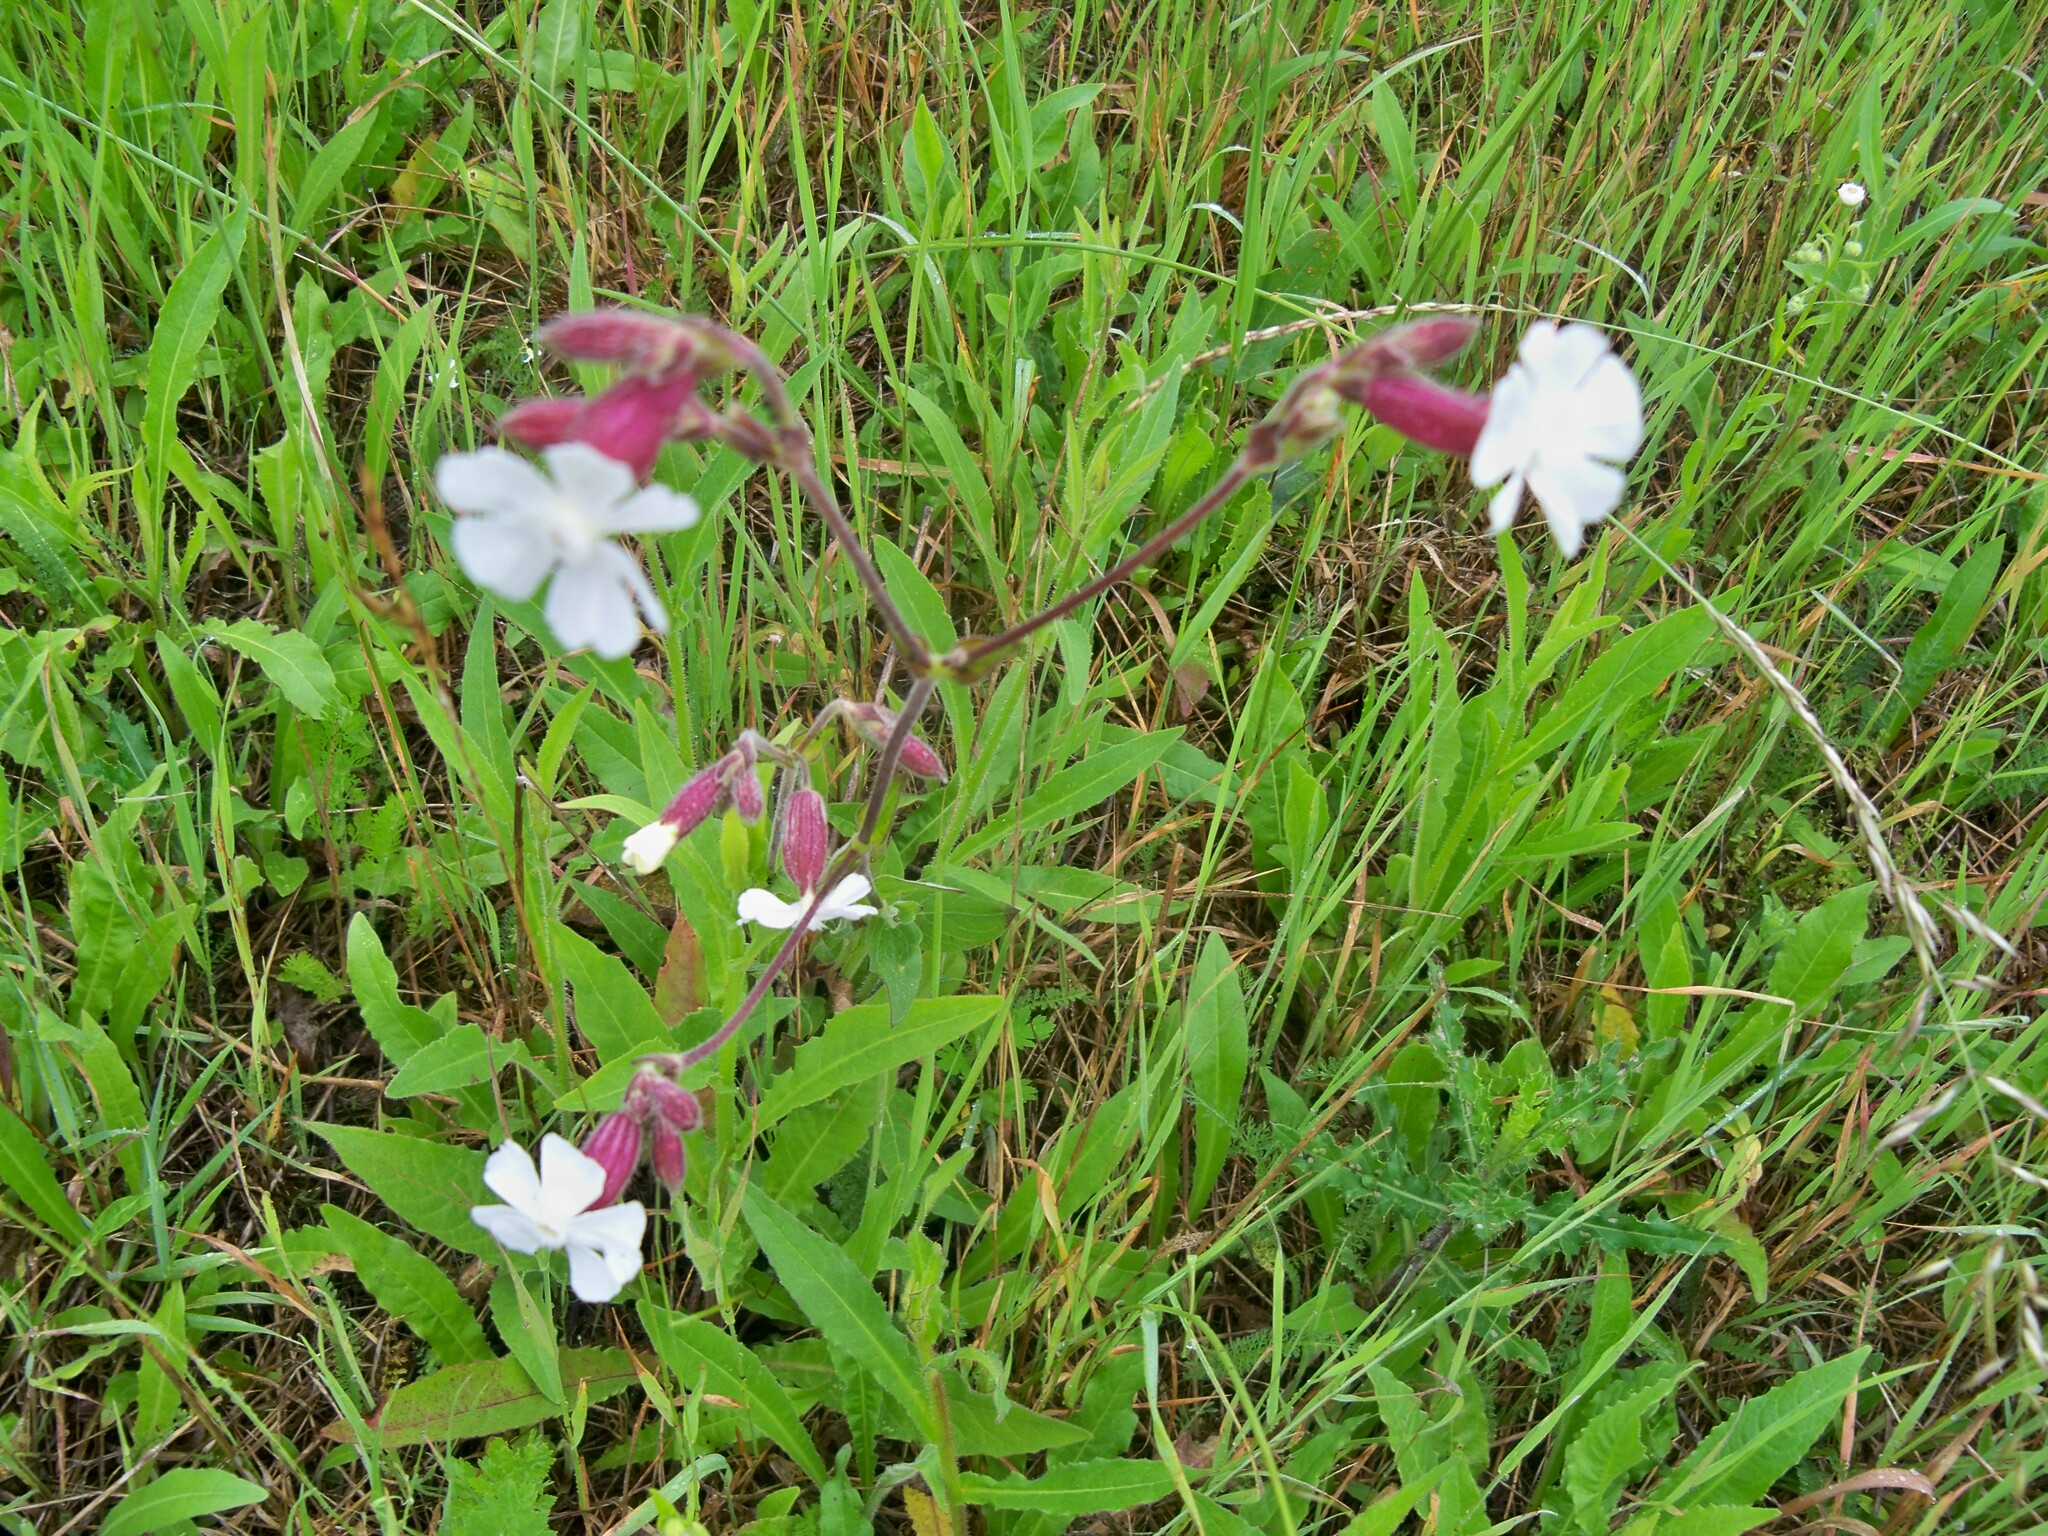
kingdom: Plantae
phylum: Tracheophyta
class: Magnoliopsida
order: Caryophyllales
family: Caryophyllaceae
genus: Silene
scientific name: Silene latifolia
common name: White campion
